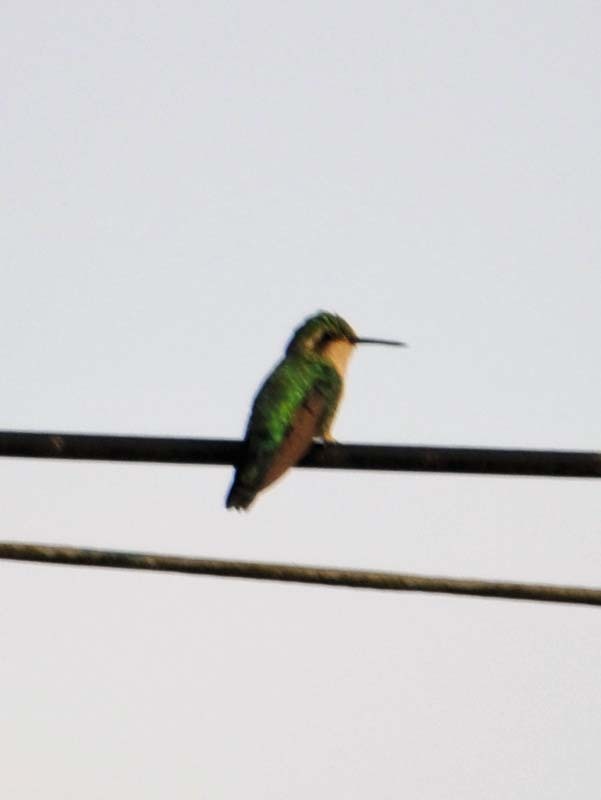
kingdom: Animalia
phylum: Chordata
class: Aves
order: Apodiformes
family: Trochilidae
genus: Cynanthus
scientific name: Cynanthus canivetii
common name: Canivet's emerald
